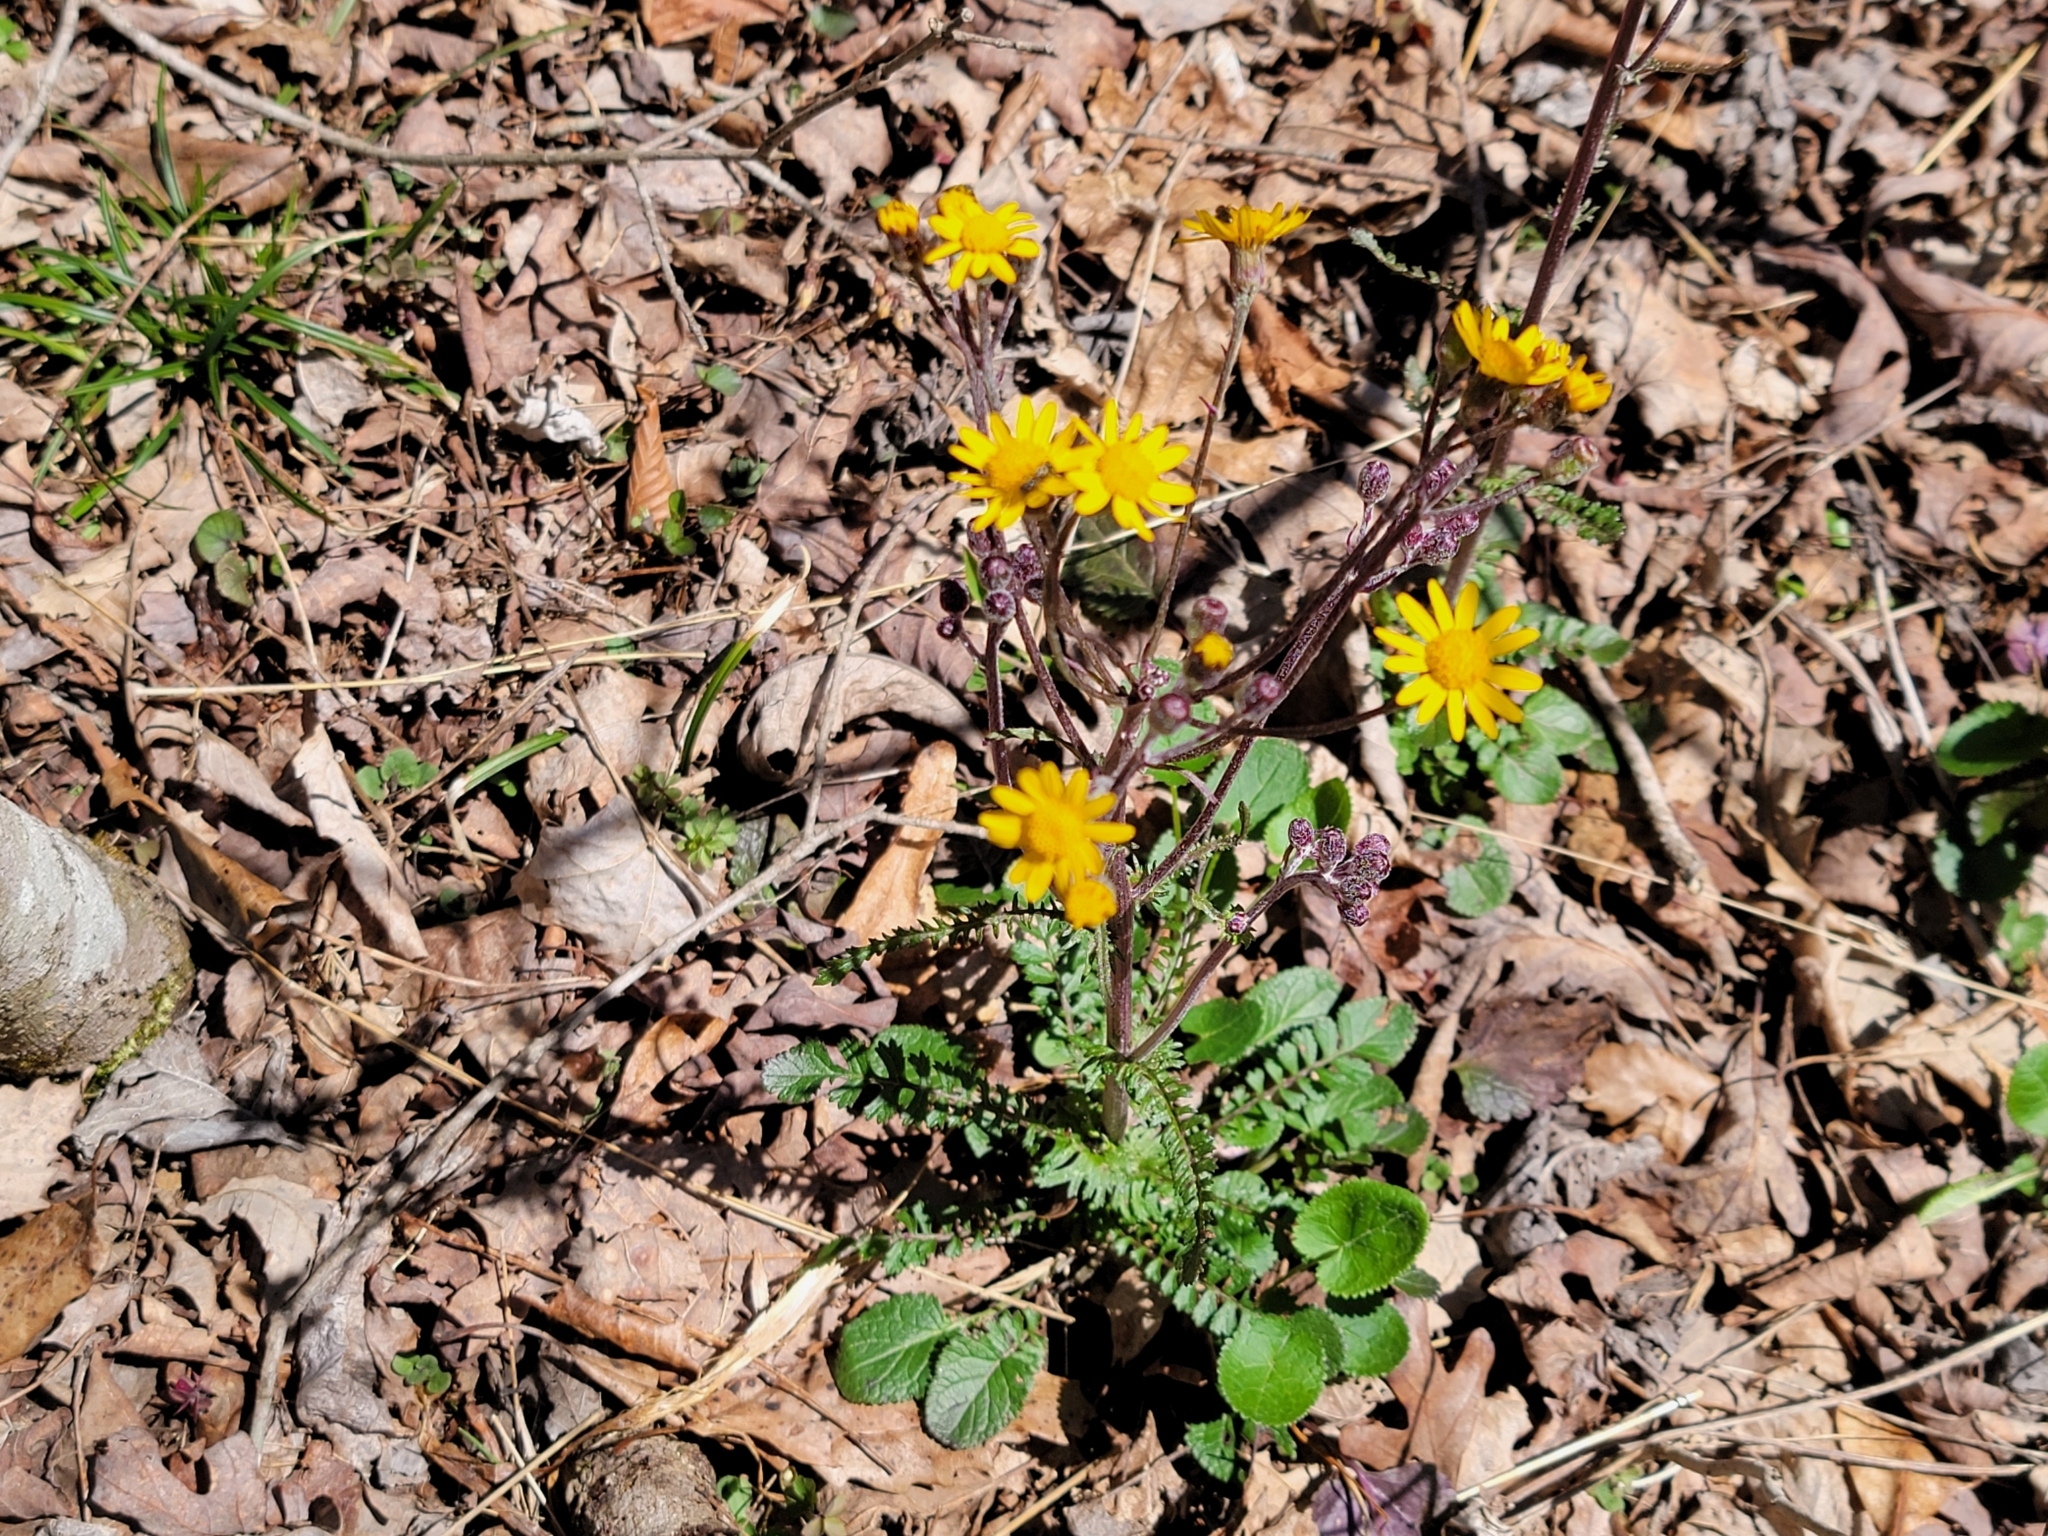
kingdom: Plantae
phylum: Tracheophyta
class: Magnoliopsida
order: Asterales
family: Asteraceae
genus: Packera
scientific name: Packera aurea
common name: Golden groundsel
